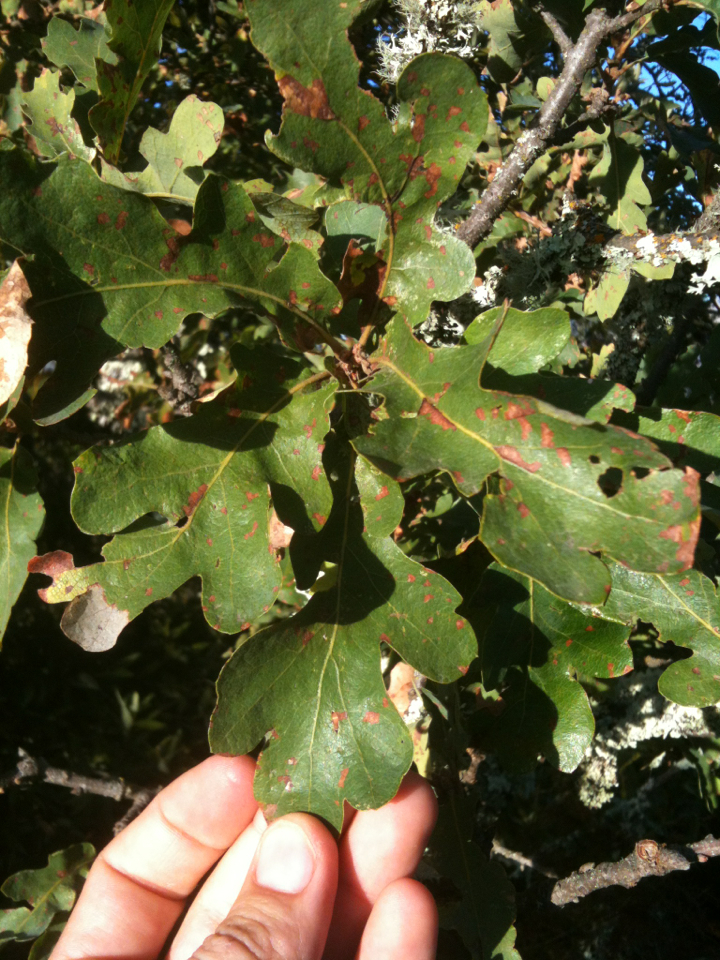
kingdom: Plantae
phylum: Tracheophyta
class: Magnoliopsida
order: Fagales
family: Fagaceae
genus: Quercus
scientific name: Quercus lobata
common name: Valley oak
